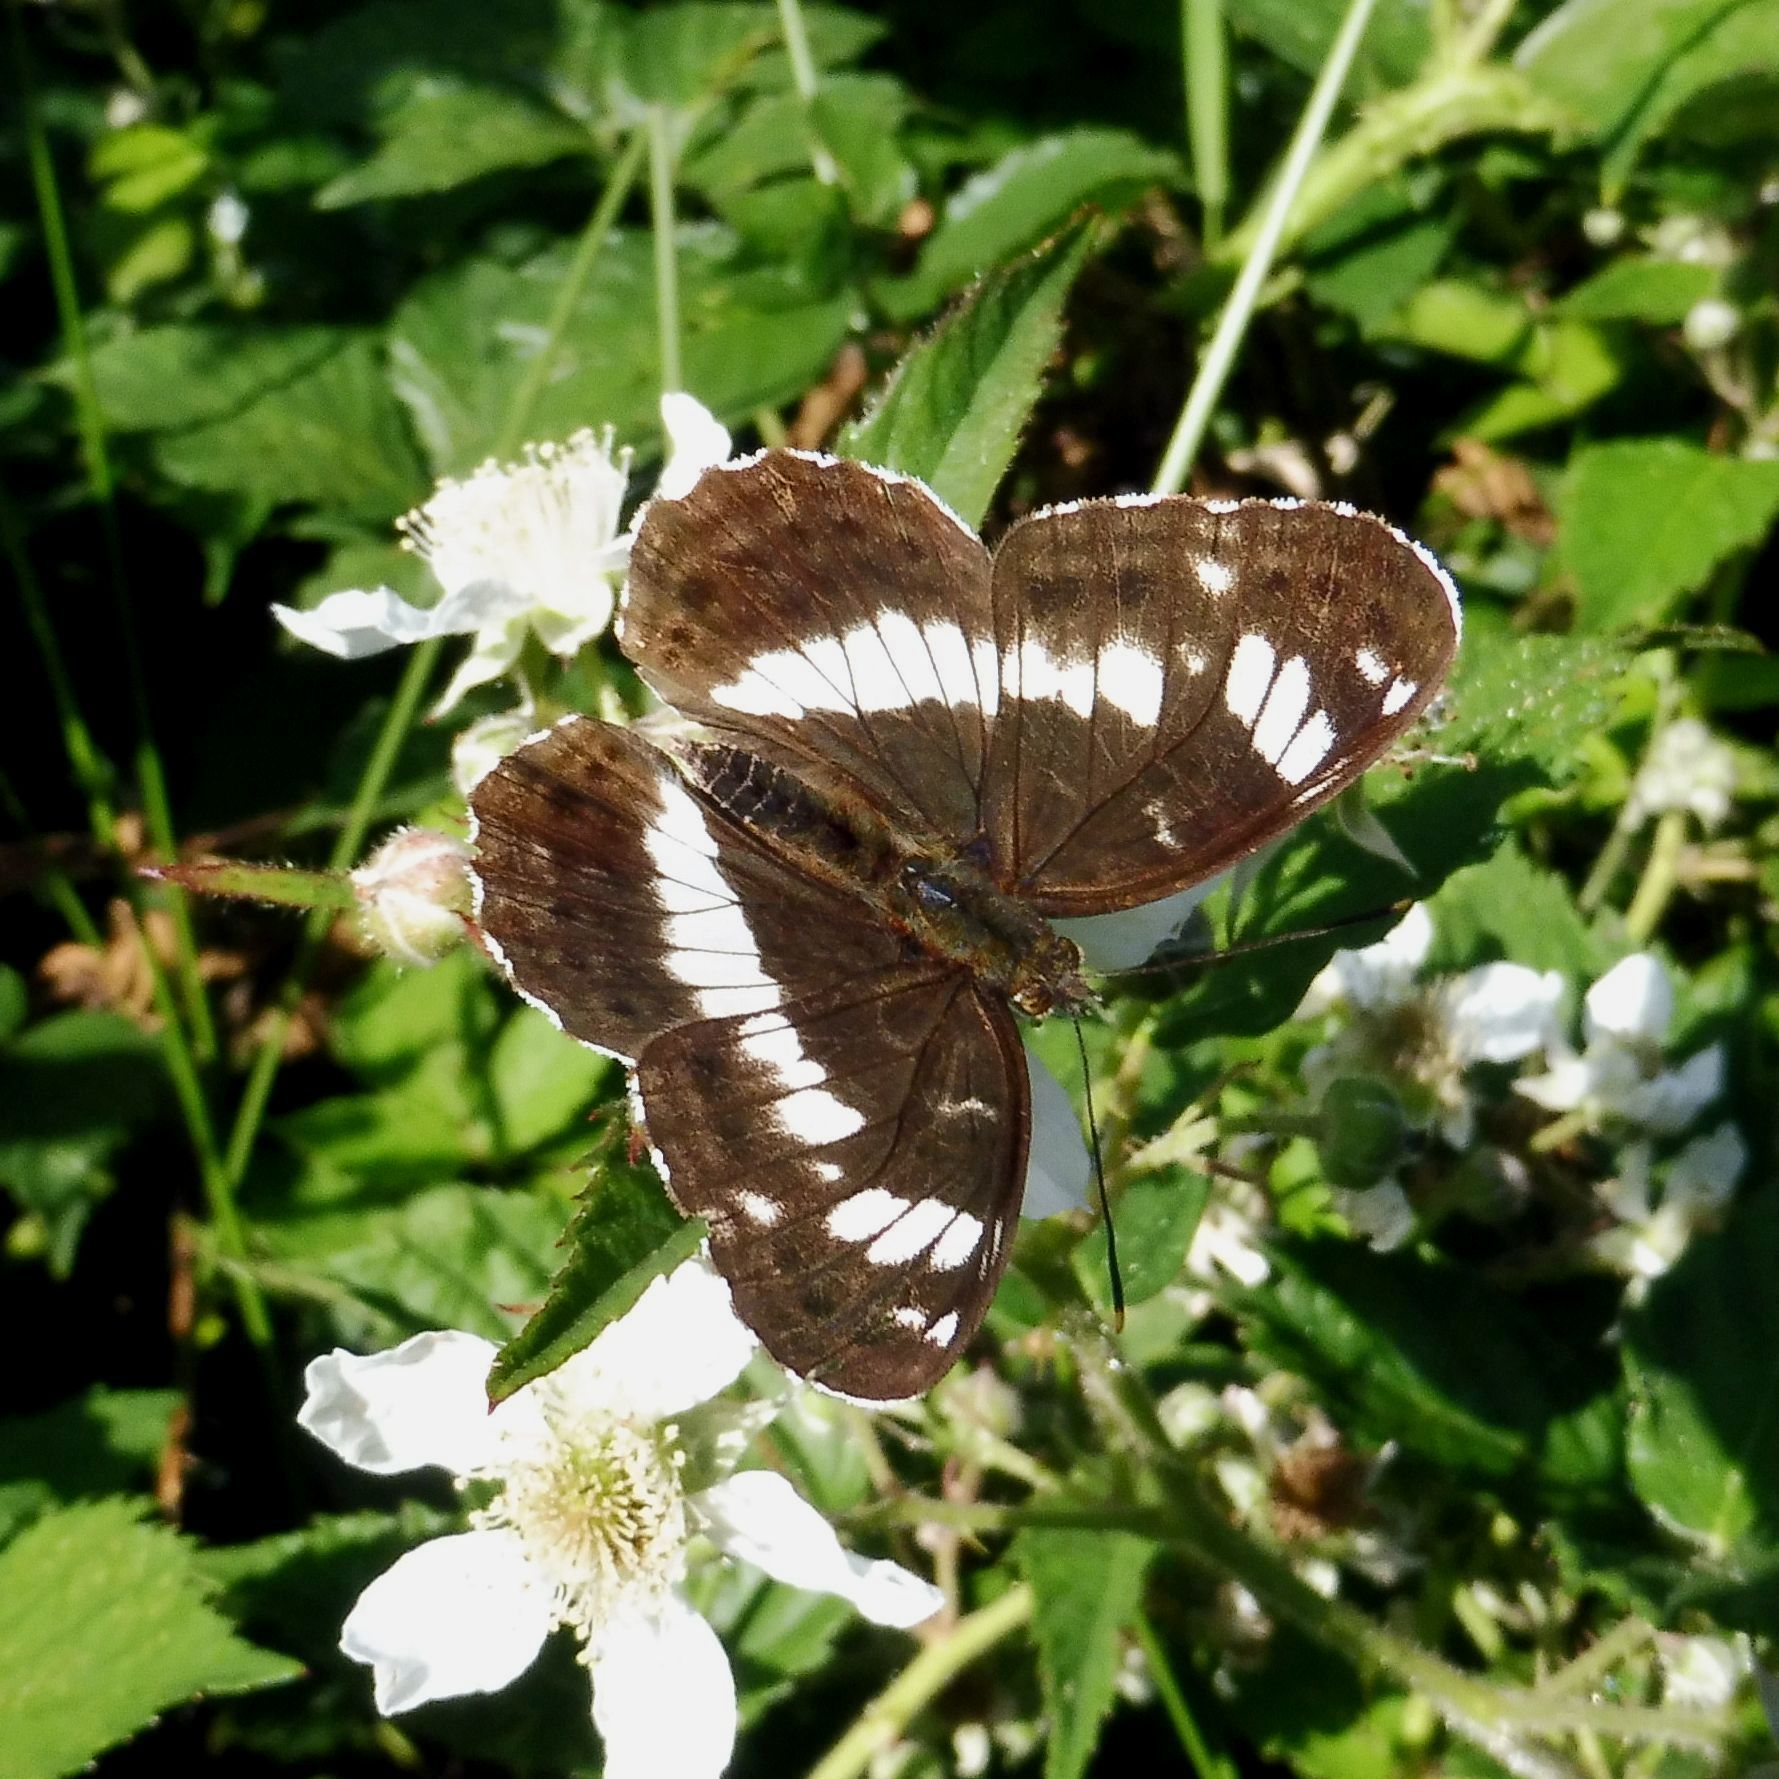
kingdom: Animalia
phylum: Arthropoda
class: Insecta
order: Lepidoptera
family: Nymphalidae
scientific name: Nymphalidae
